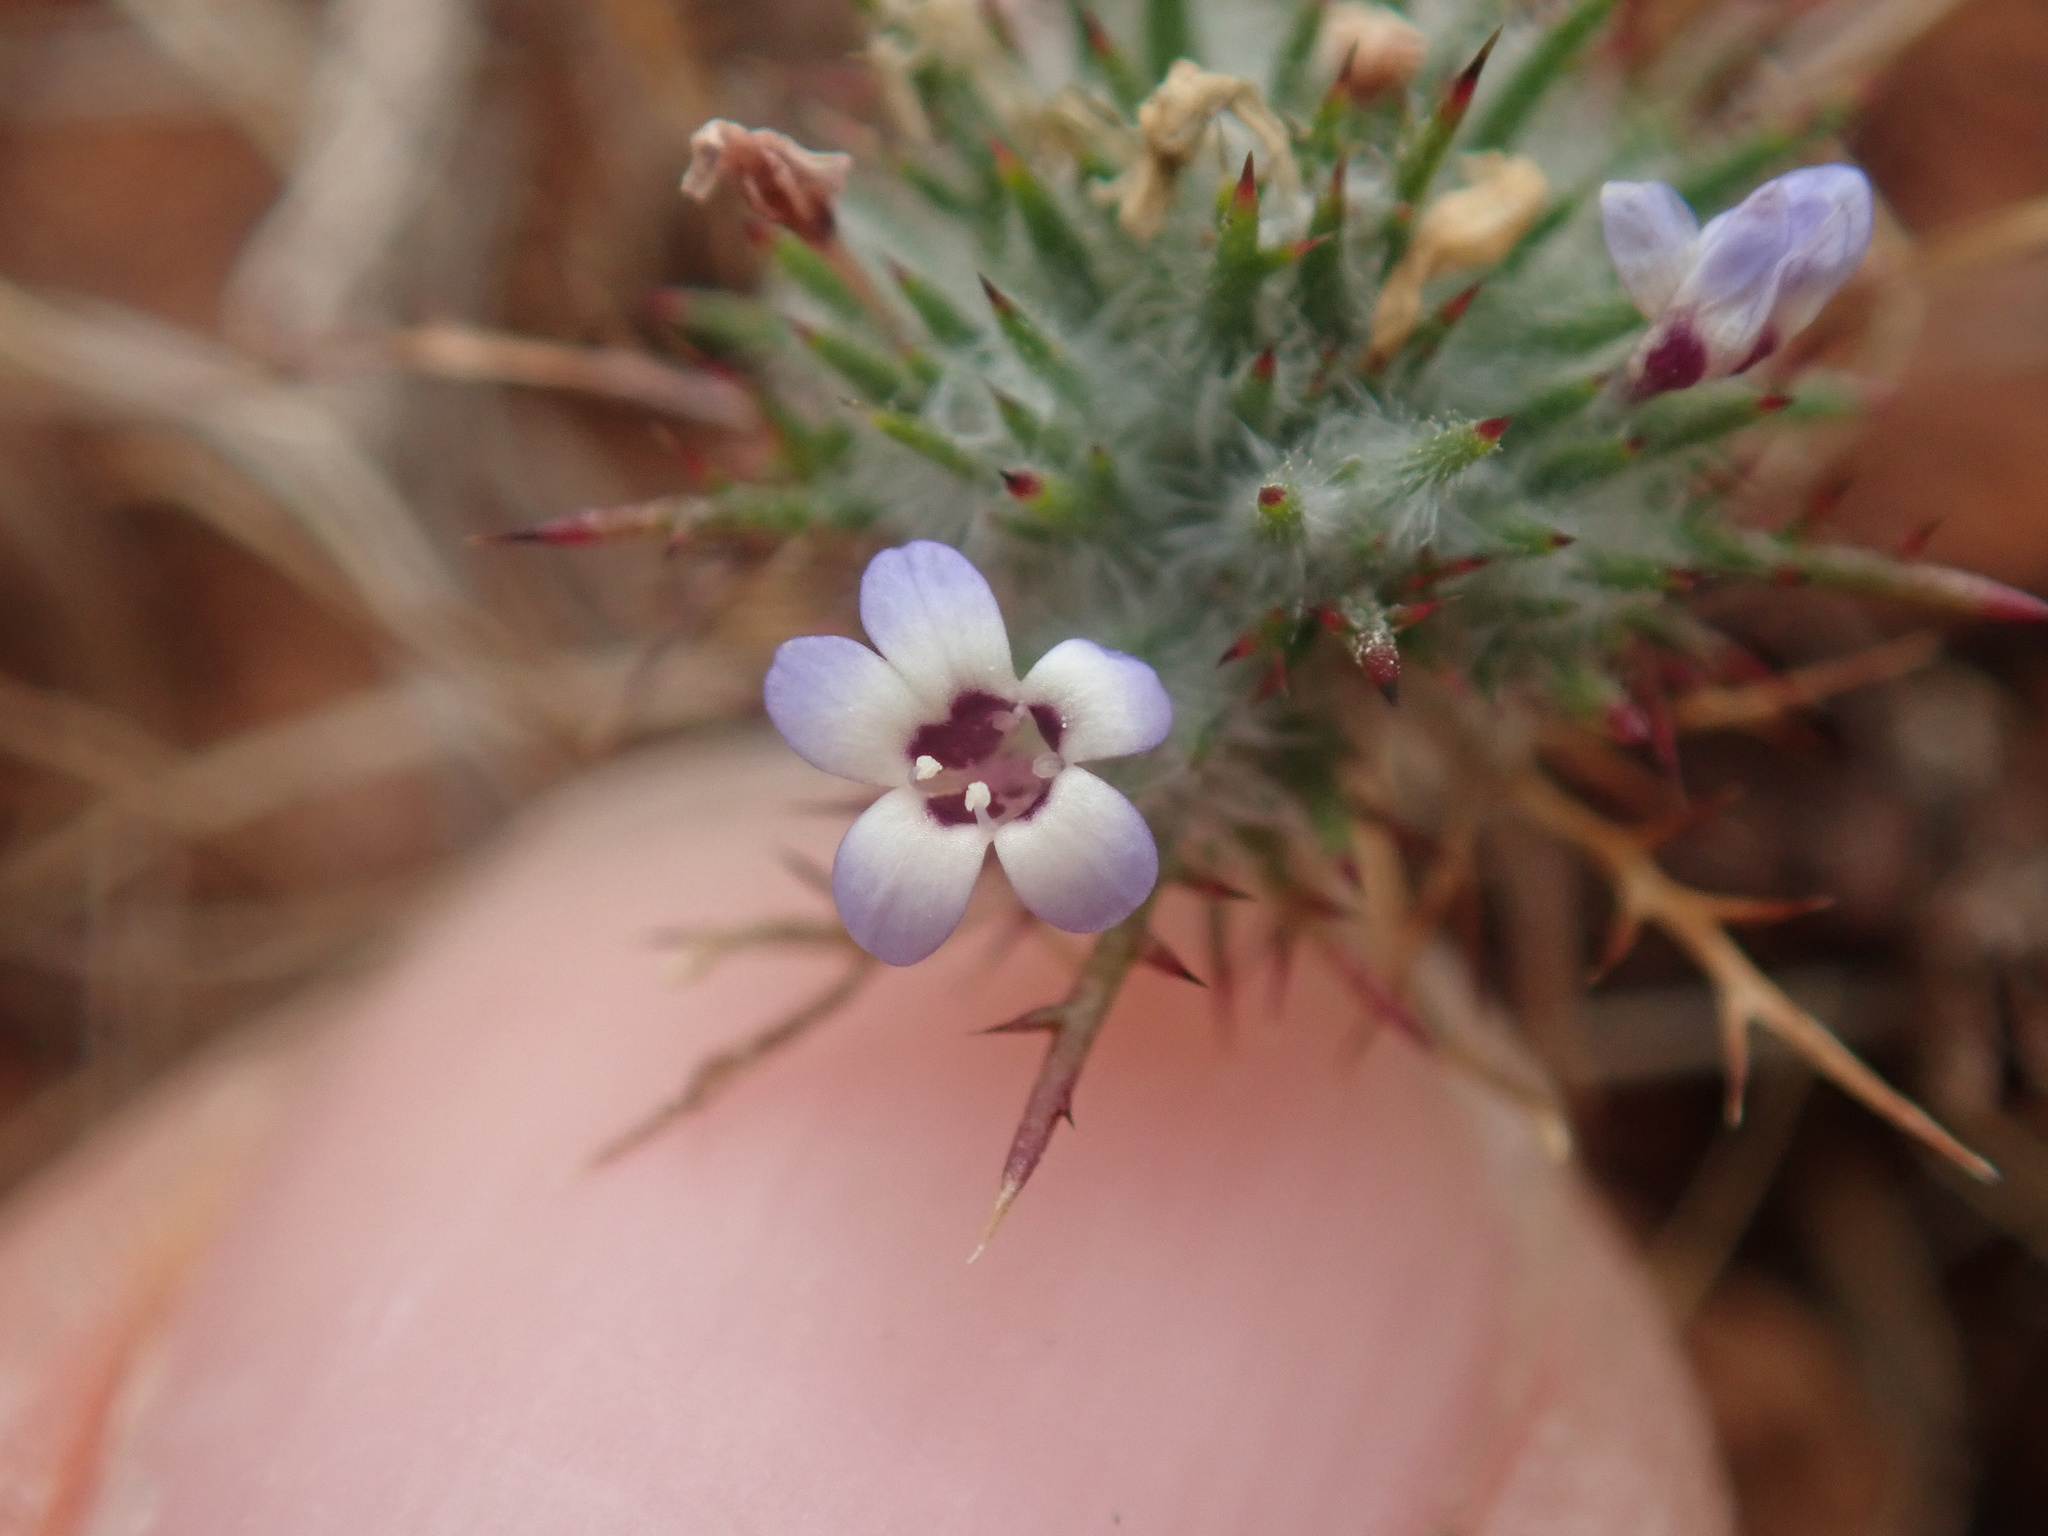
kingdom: Plantae
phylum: Tracheophyta
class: Magnoliopsida
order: Ericales
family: Polemoniaceae
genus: Navarretia
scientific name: Navarretia heterandra
